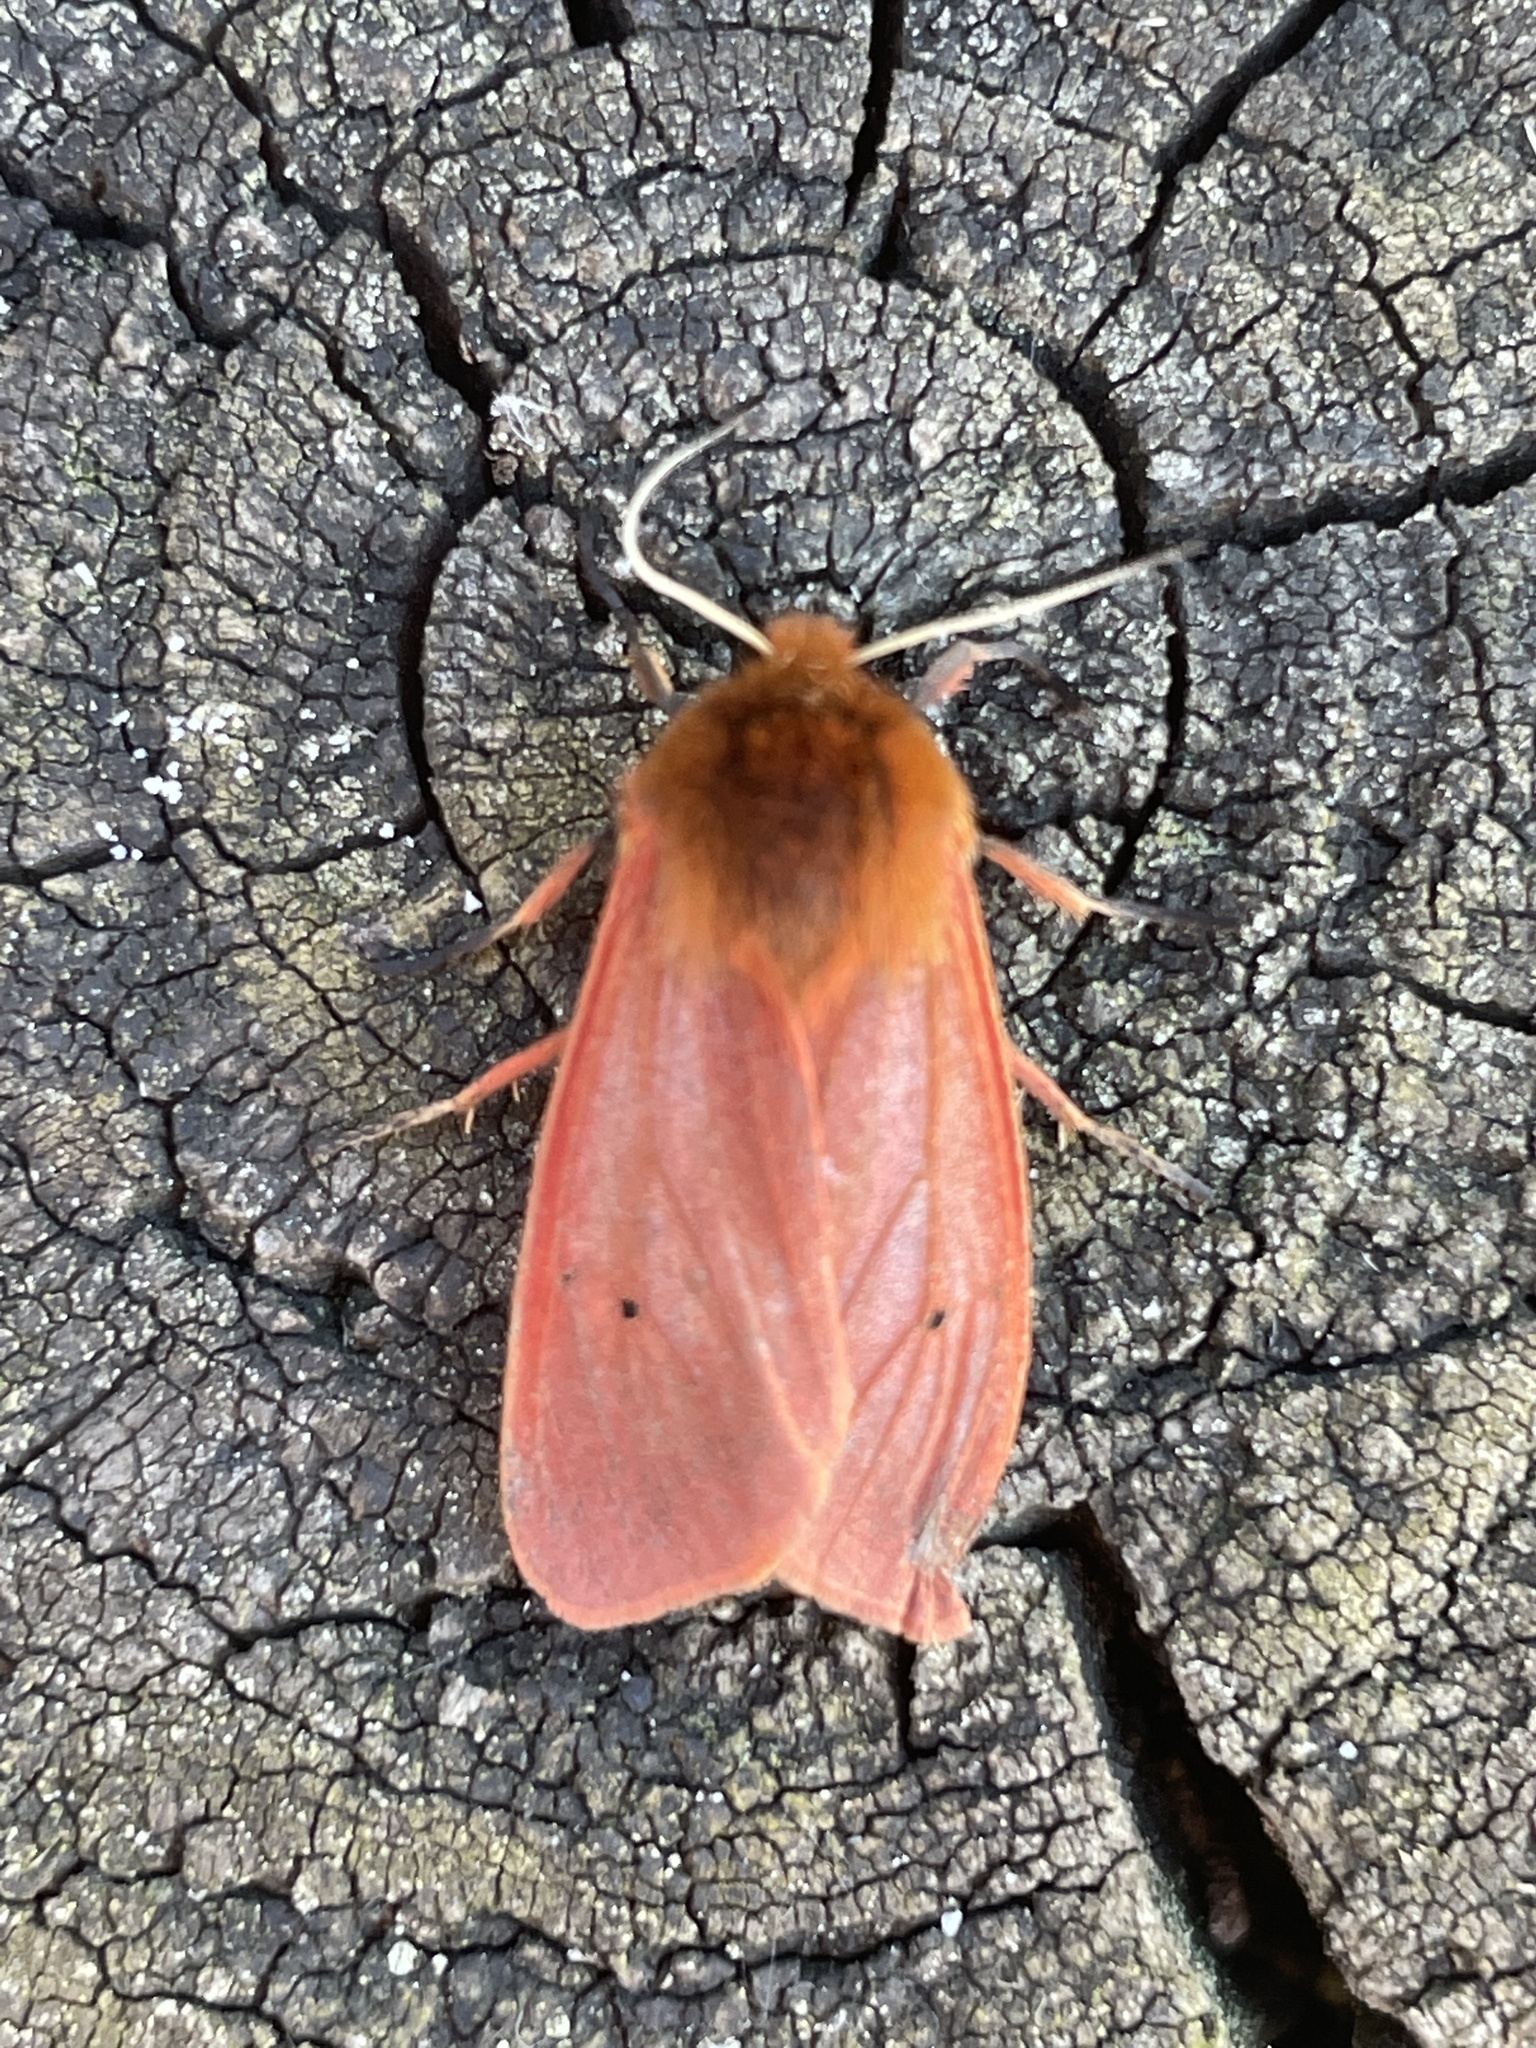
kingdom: Animalia
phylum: Arthropoda
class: Insecta
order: Lepidoptera
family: Erebidae
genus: Phragmatobia
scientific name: Phragmatobia fuliginosa
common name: Ruby tiger
